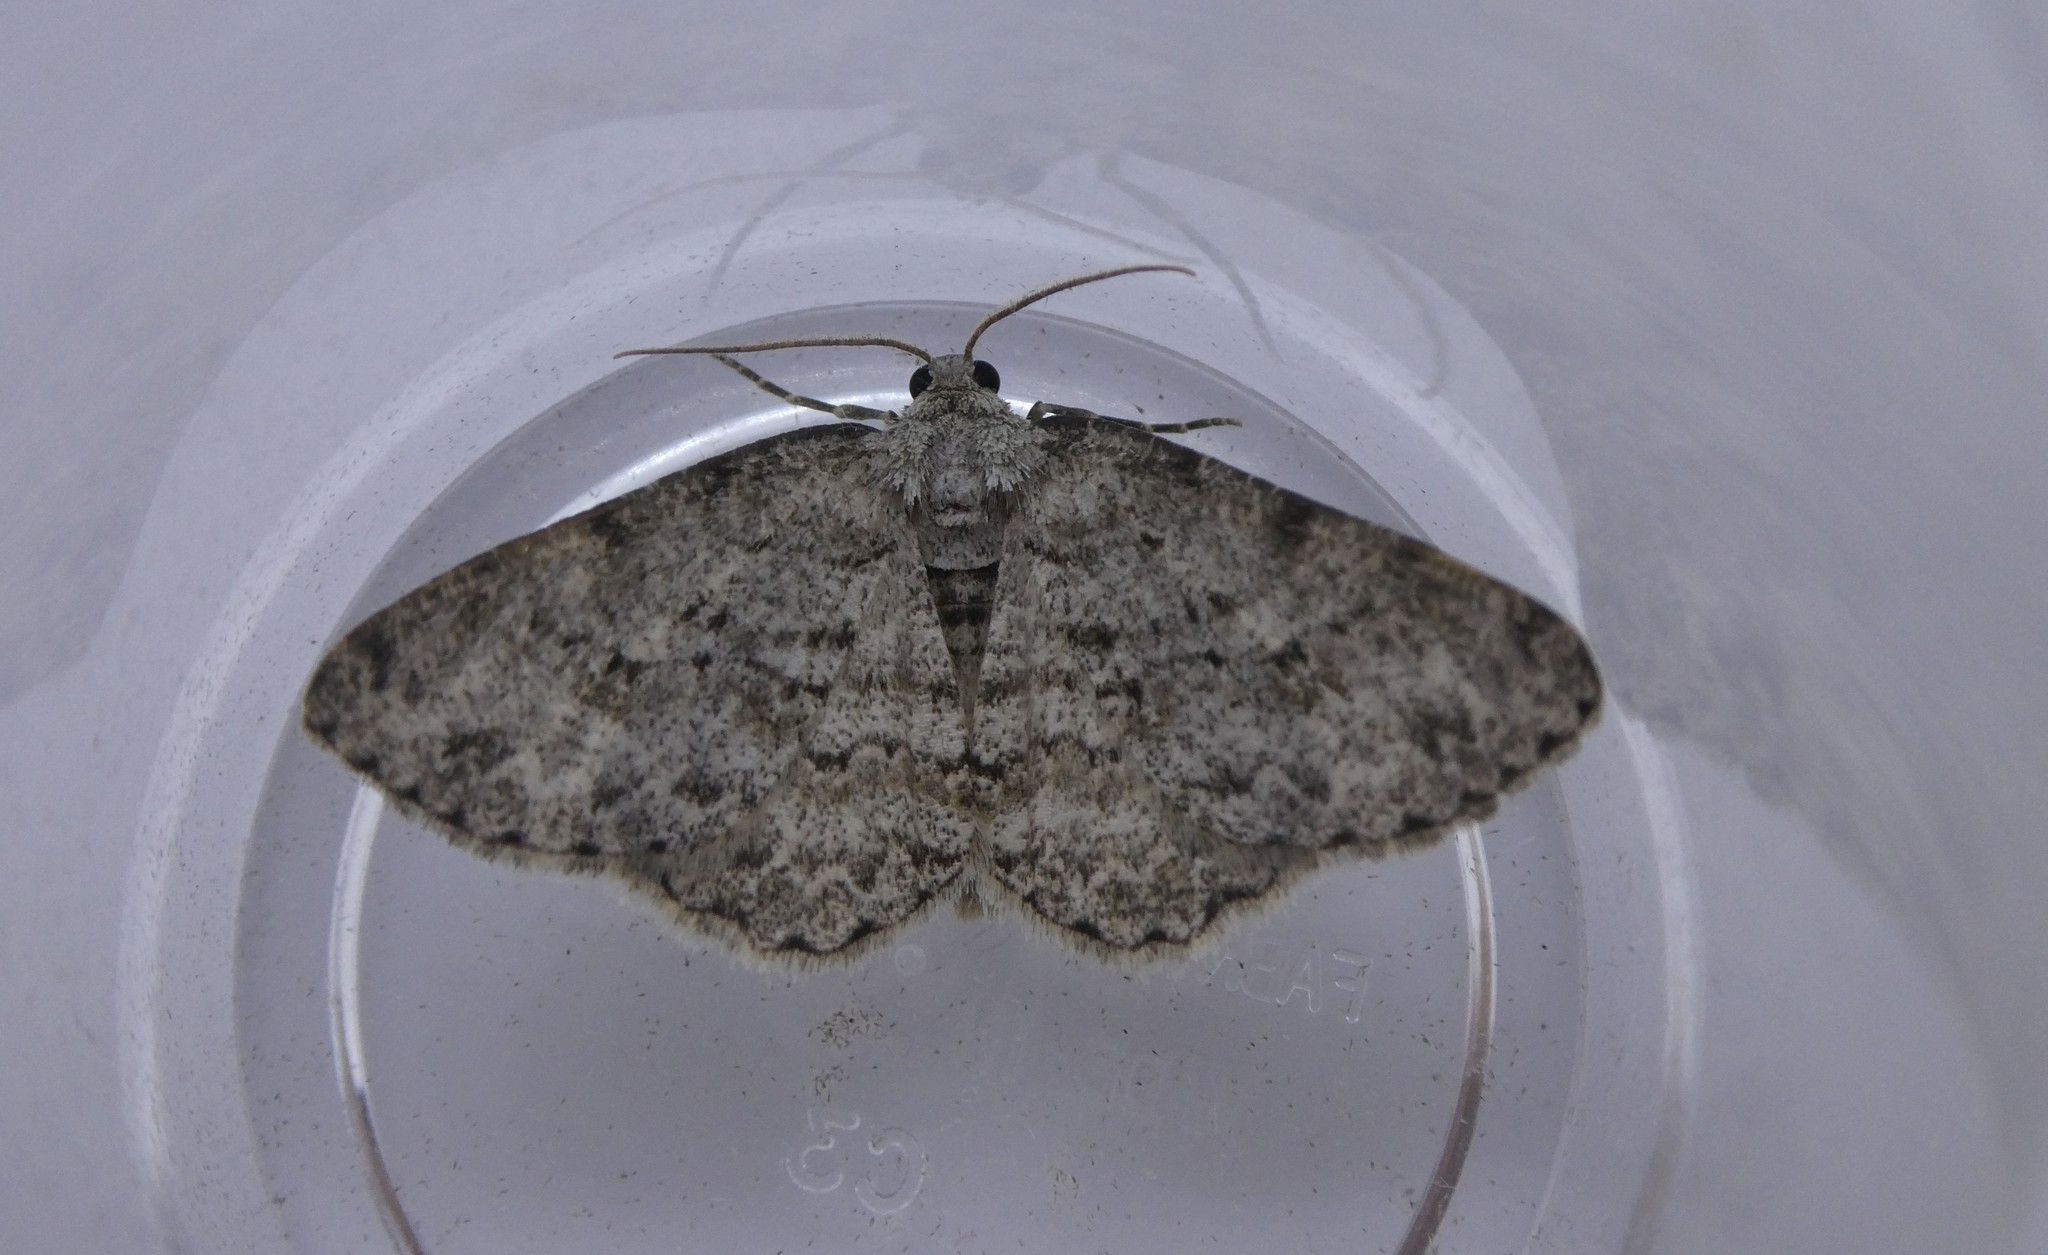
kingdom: Animalia
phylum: Arthropoda
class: Insecta
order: Lepidoptera
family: Geometridae
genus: Ectropis
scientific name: Ectropis crepuscularia
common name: Engrailed
